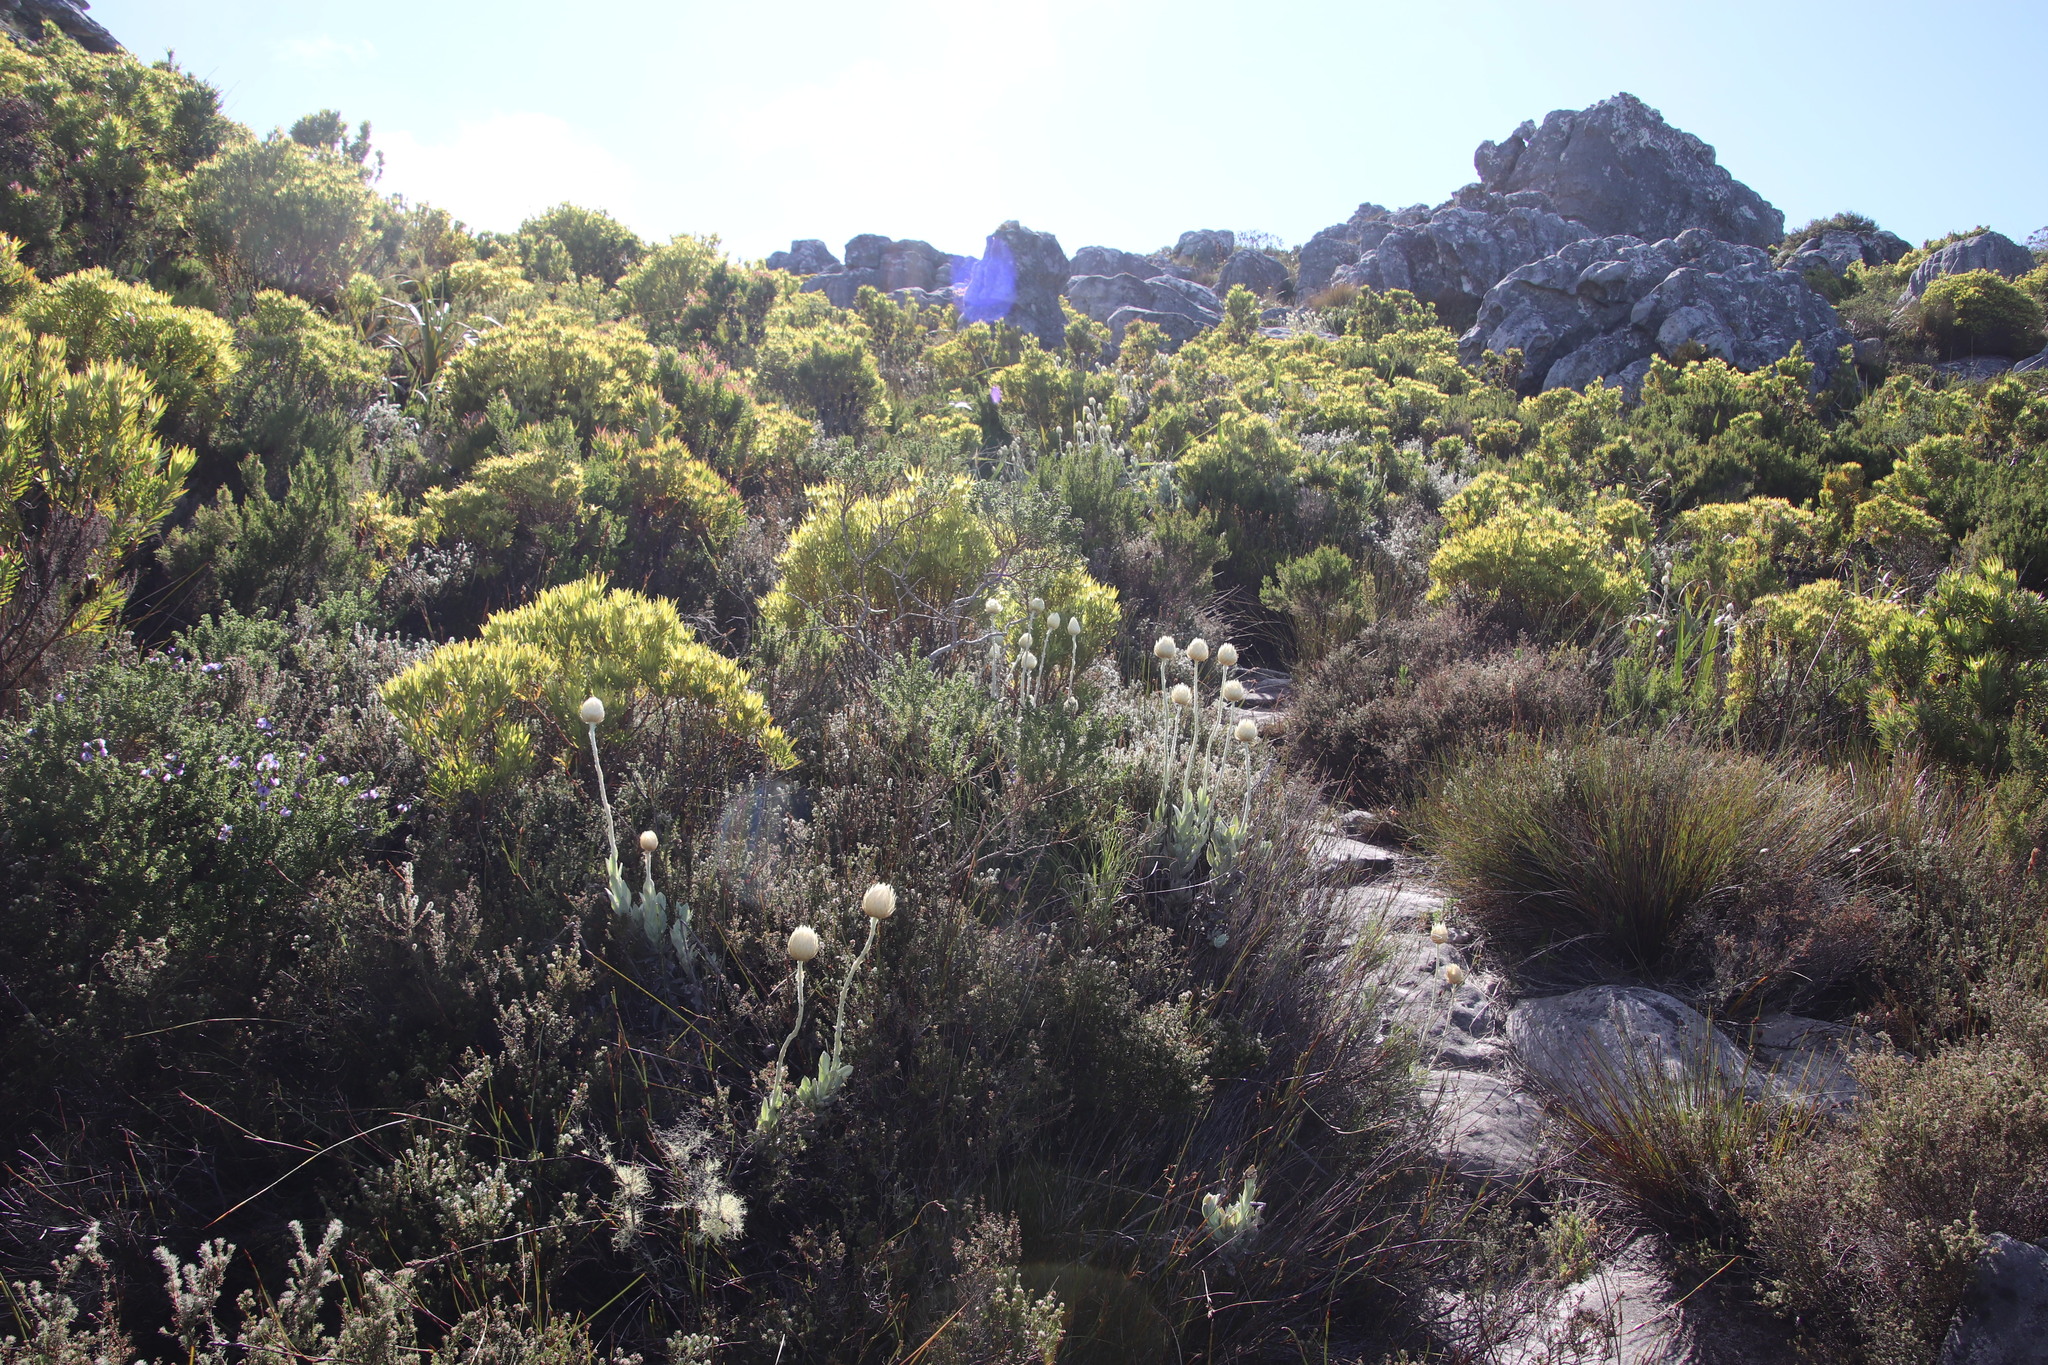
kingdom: Plantae
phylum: Tracheophyta
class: Magnoliopsida
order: Proteales
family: Proteaceae
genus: Leucadendron
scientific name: Leucadendron xanthoconus
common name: Sickle-leaf conebush
